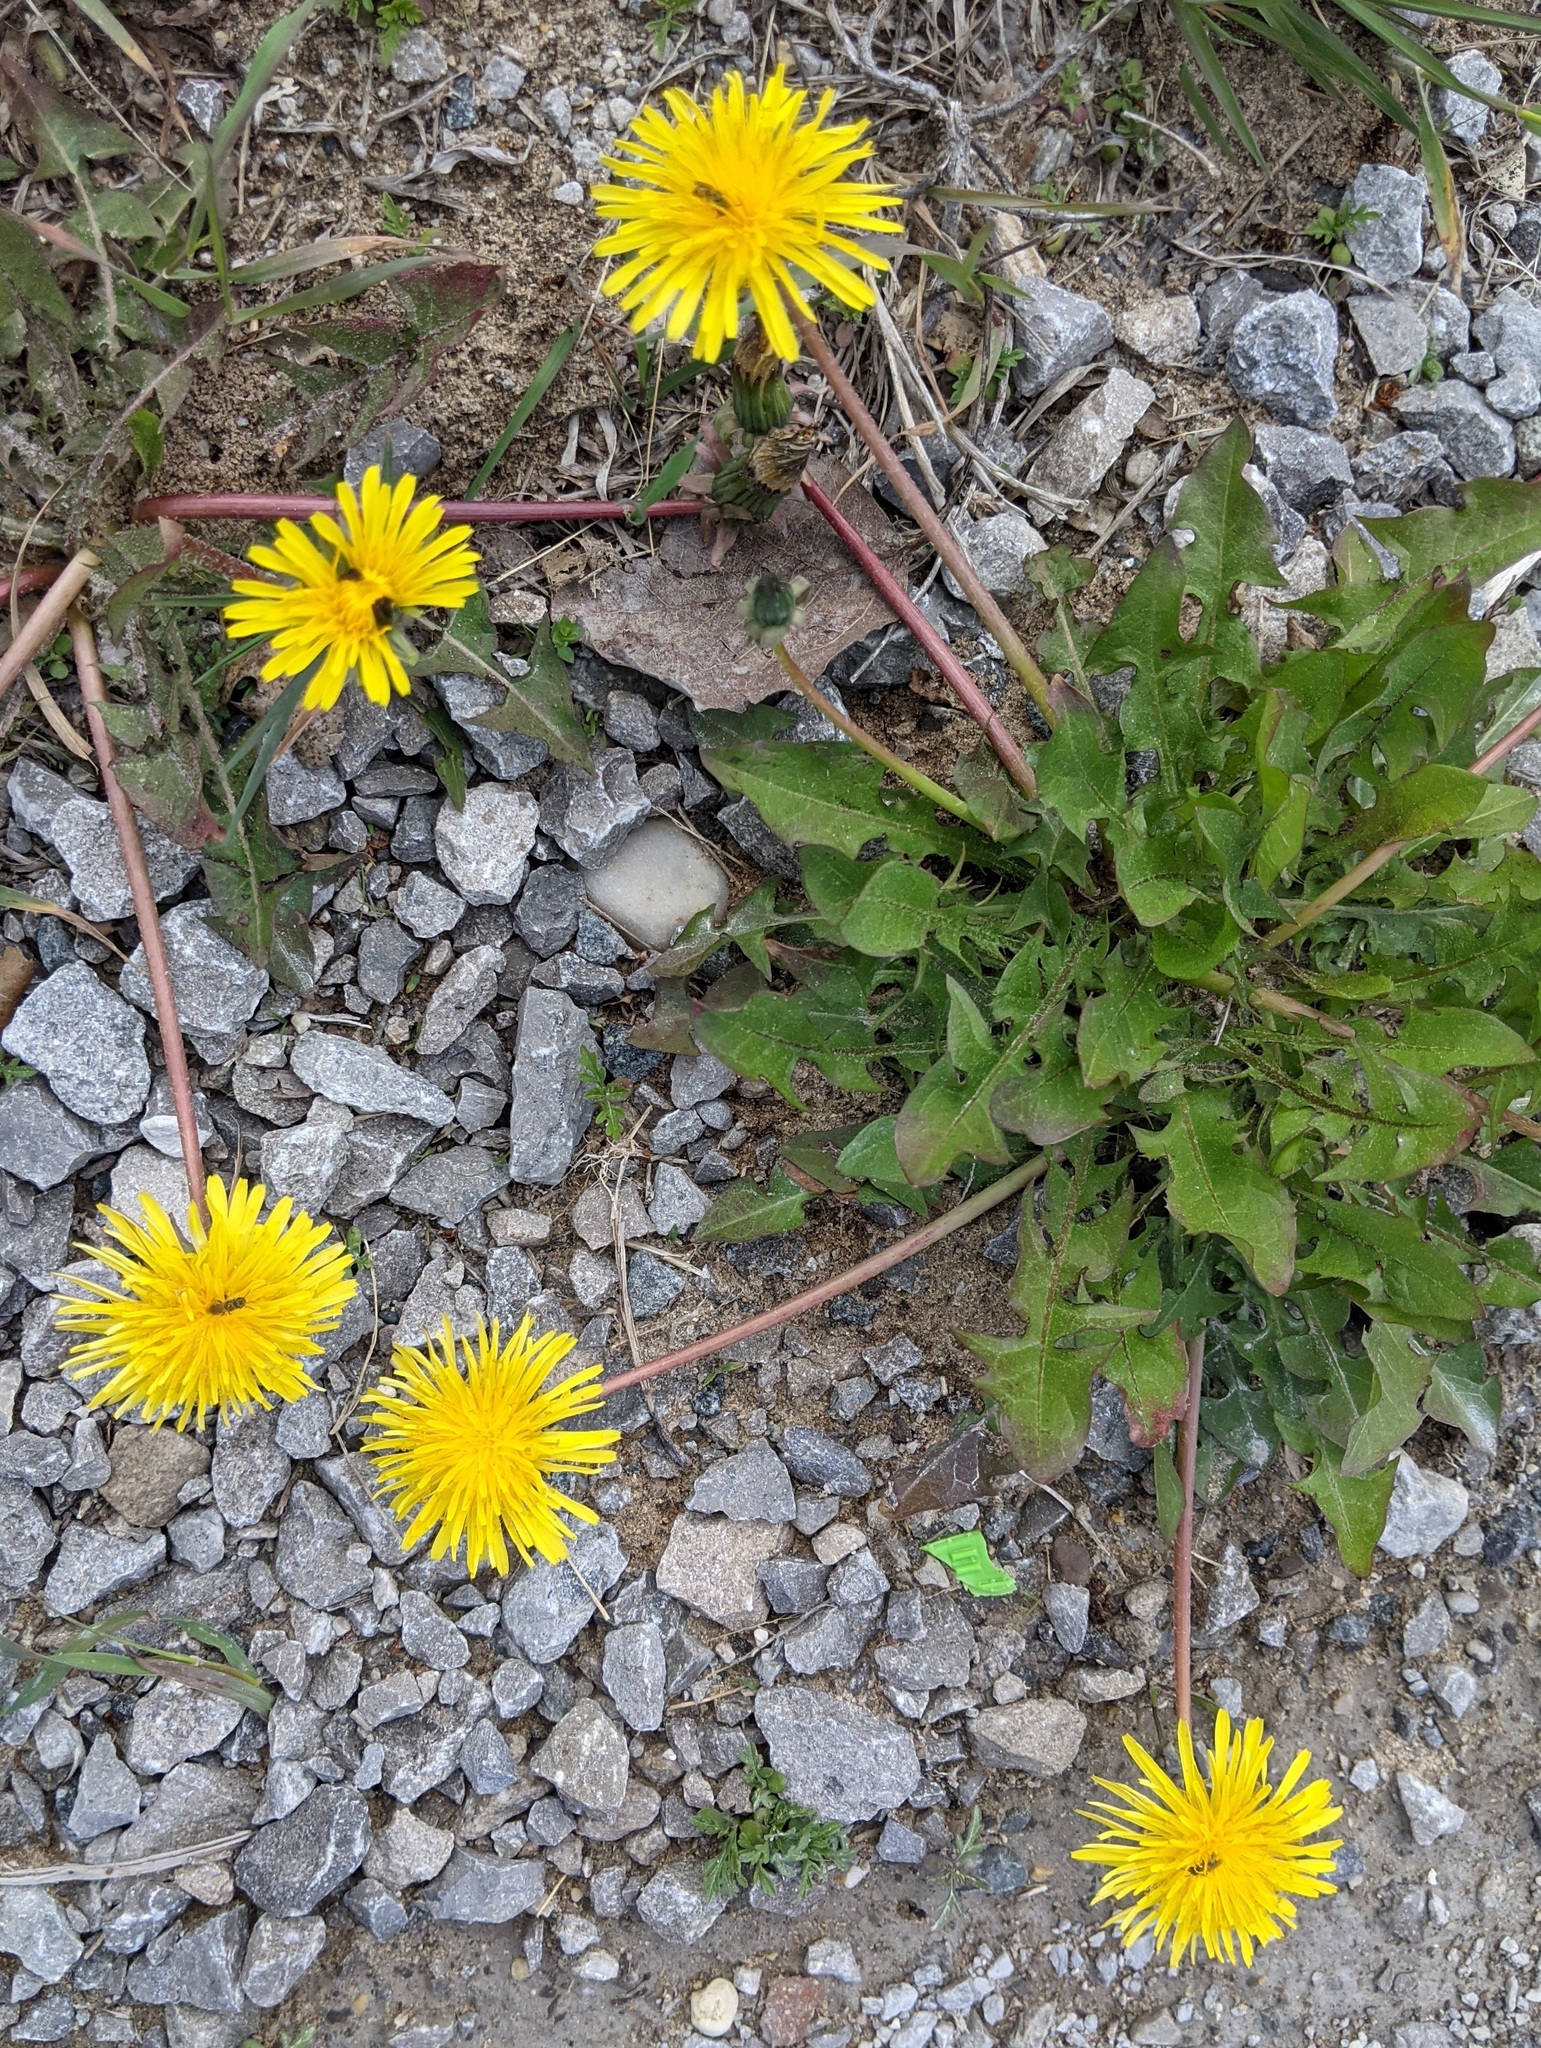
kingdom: Animalia
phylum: Arthropoda
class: Insecta
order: Hymenoptera
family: Halictidae
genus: Dialictus
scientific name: Dialictus
